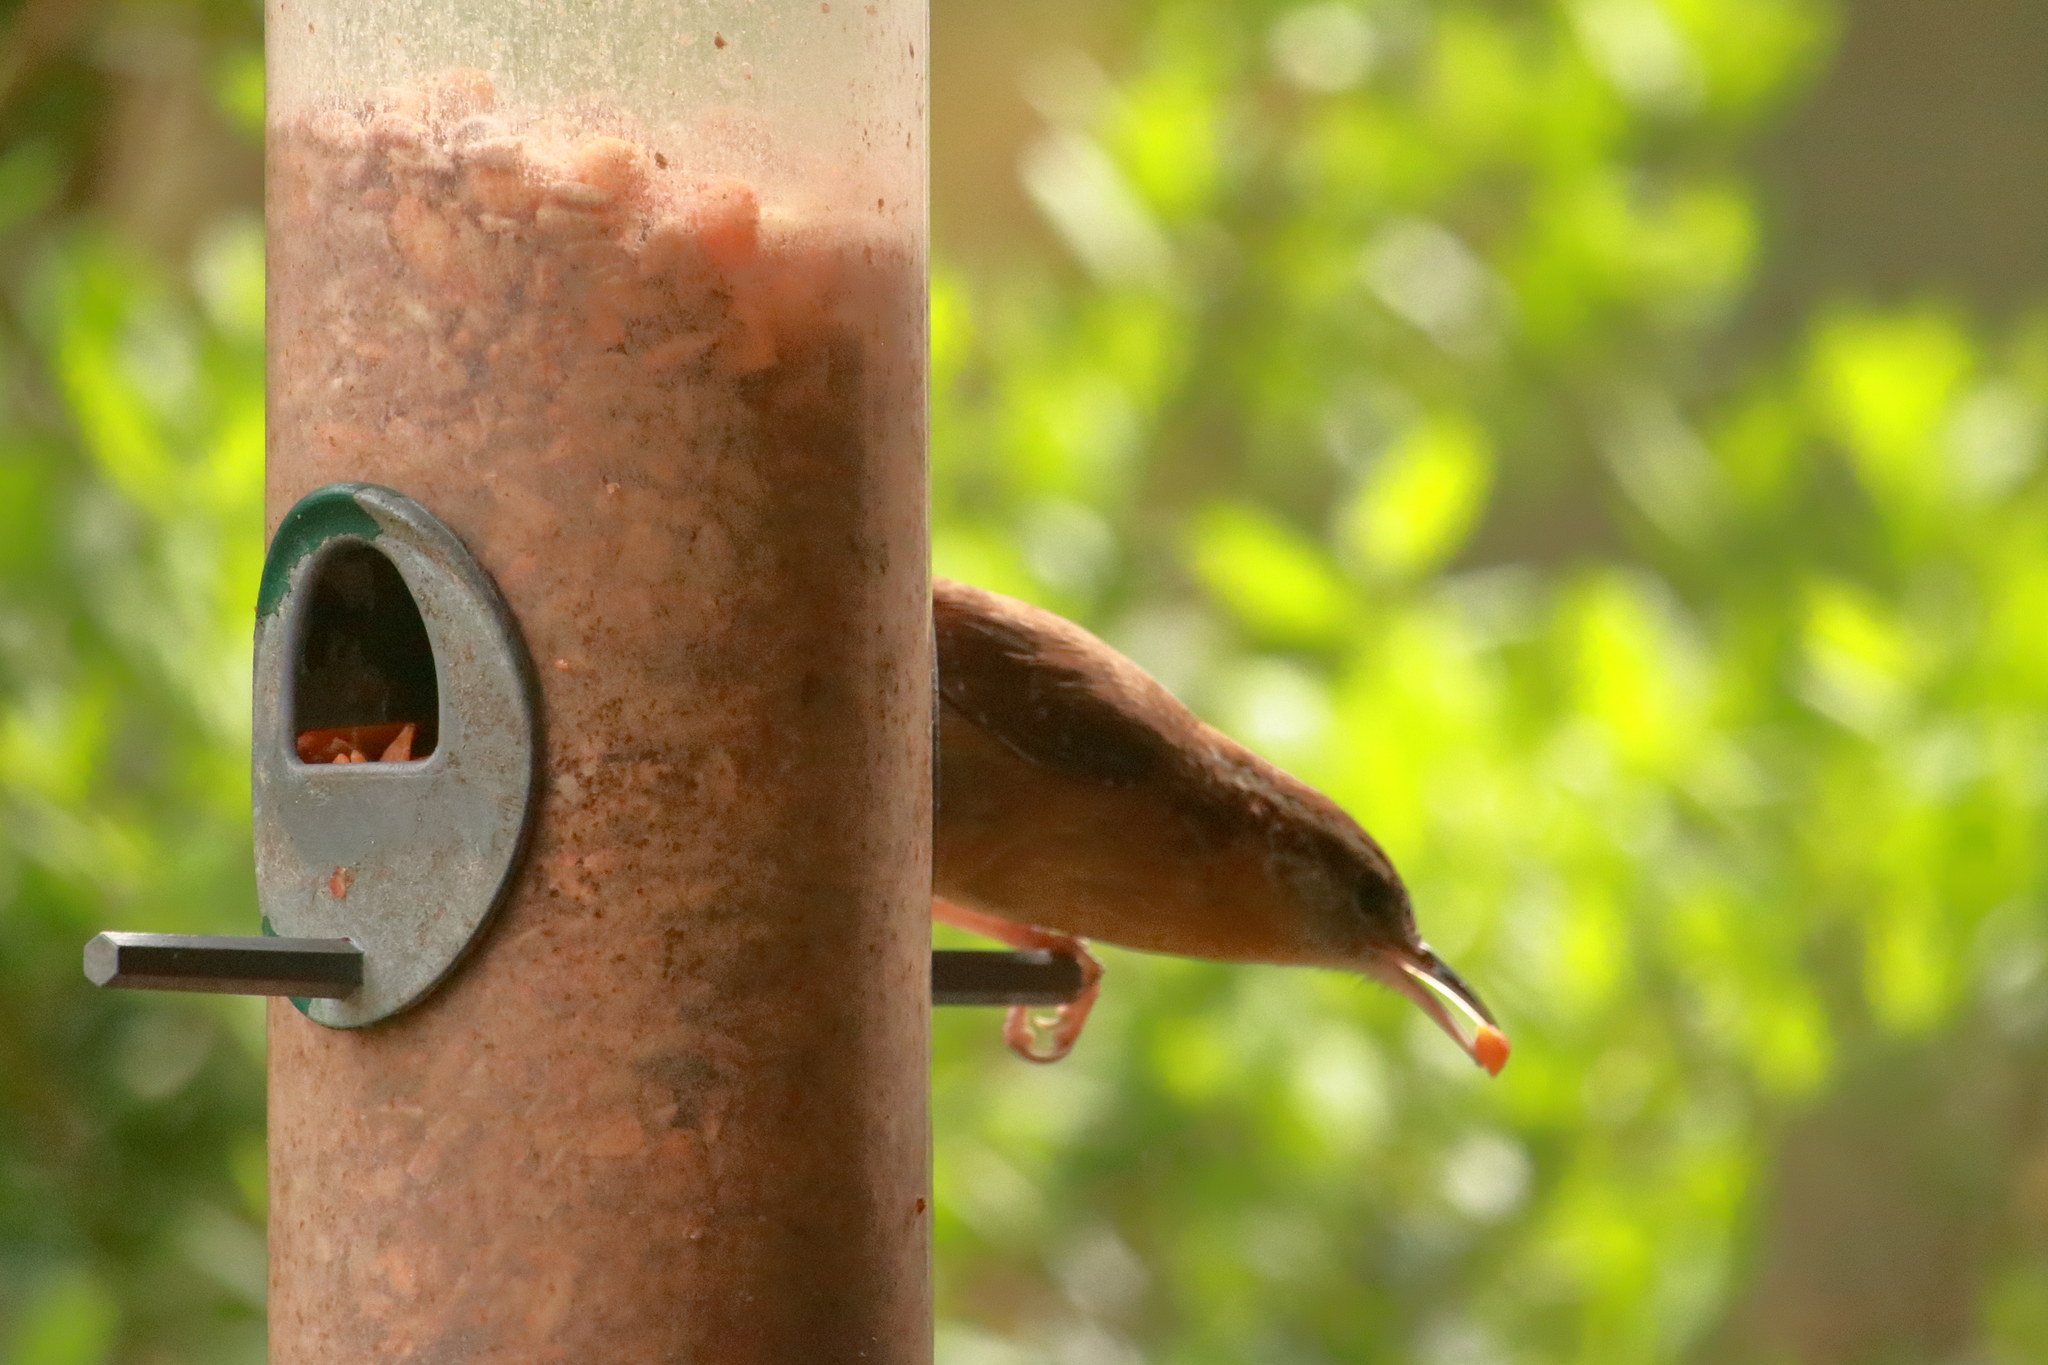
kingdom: Animalia
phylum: Chordata
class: Aves
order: Passeriformes
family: Troglodytidae
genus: Thryothorus
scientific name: Thryothorus ludovicianus
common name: Carolina wren
